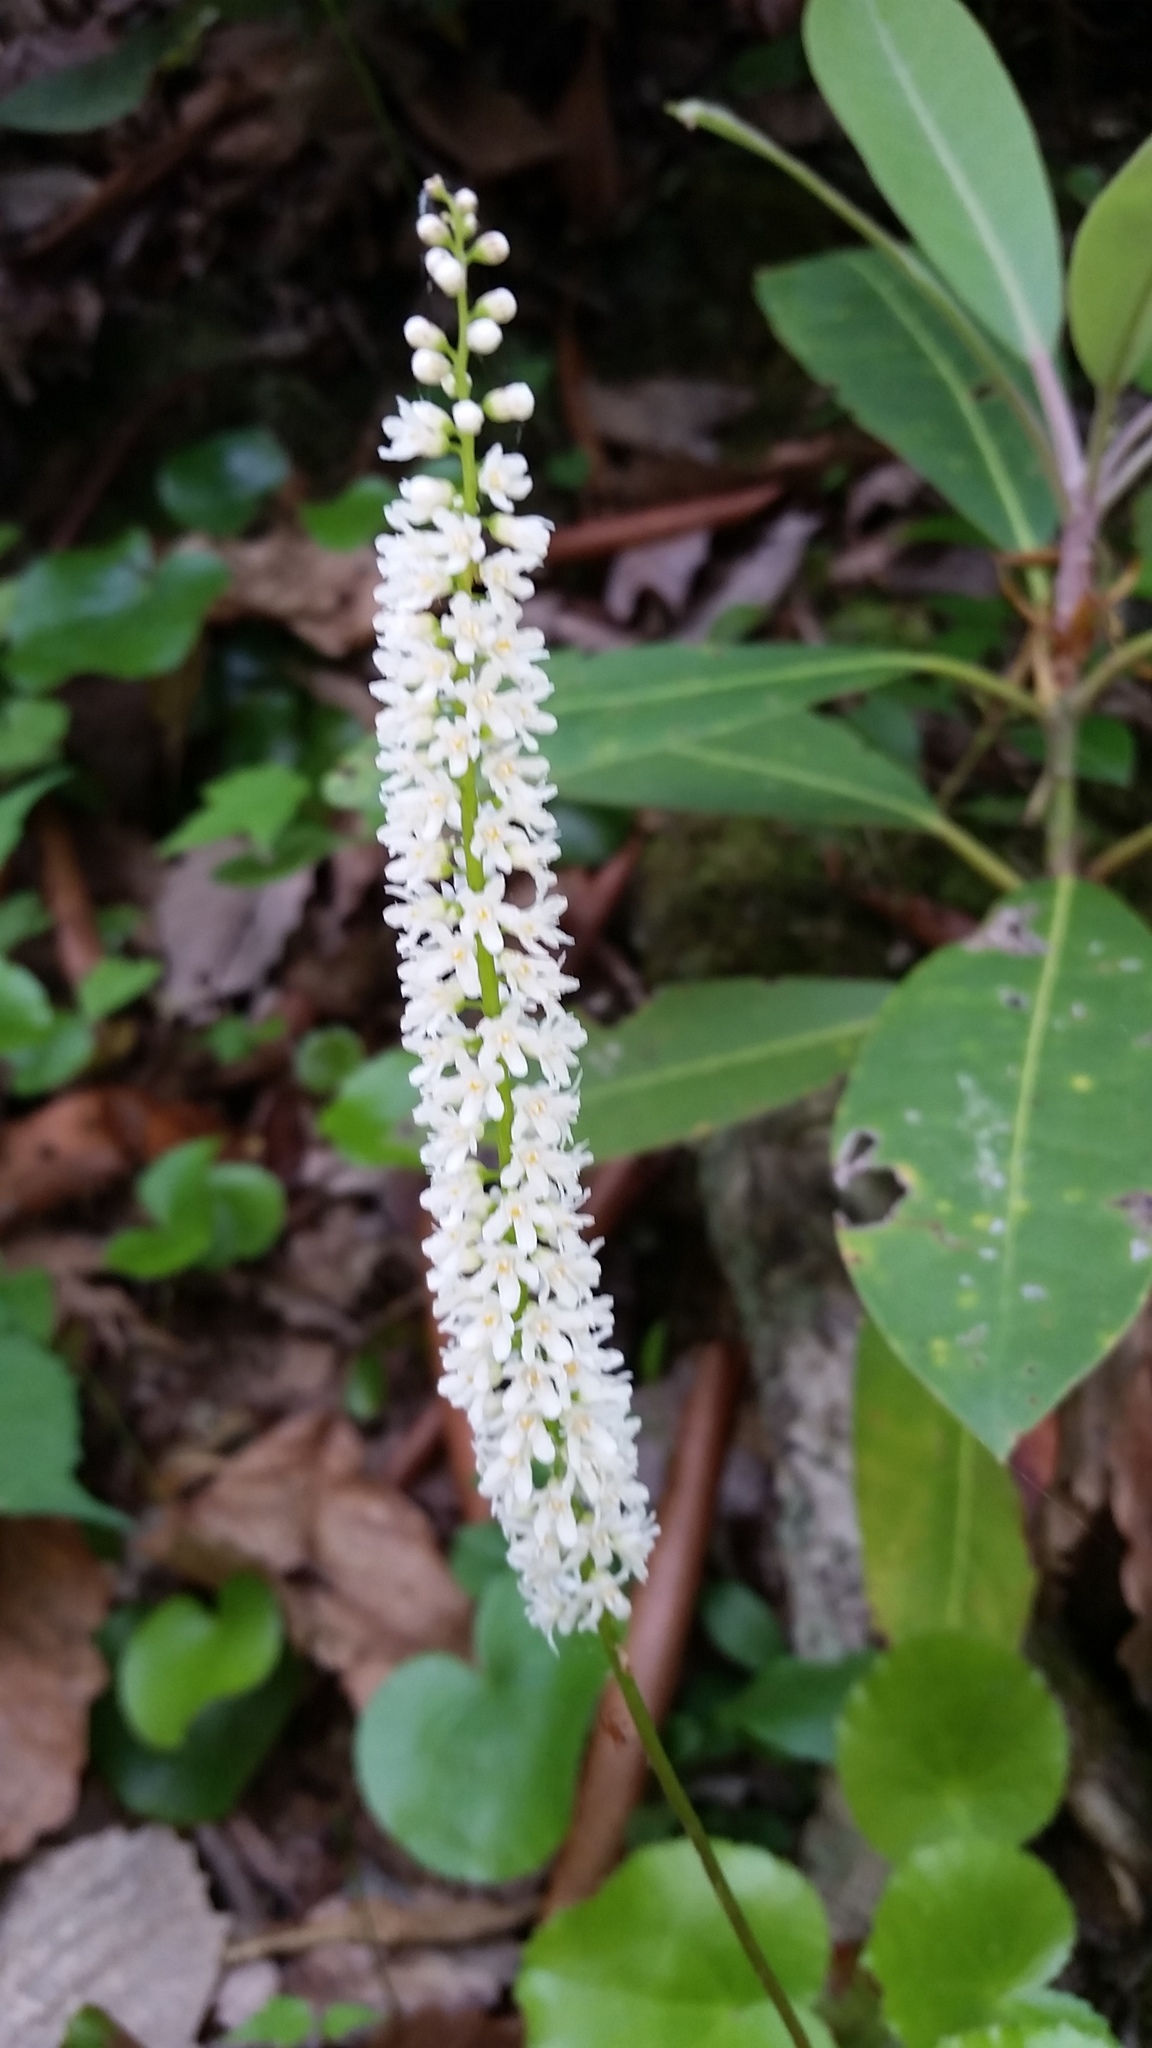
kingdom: Plantae
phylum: Tracheophyta
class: Magnoliopsida
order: Ericales
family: Diapensiaceae
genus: Galax
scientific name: Galax urceolata
